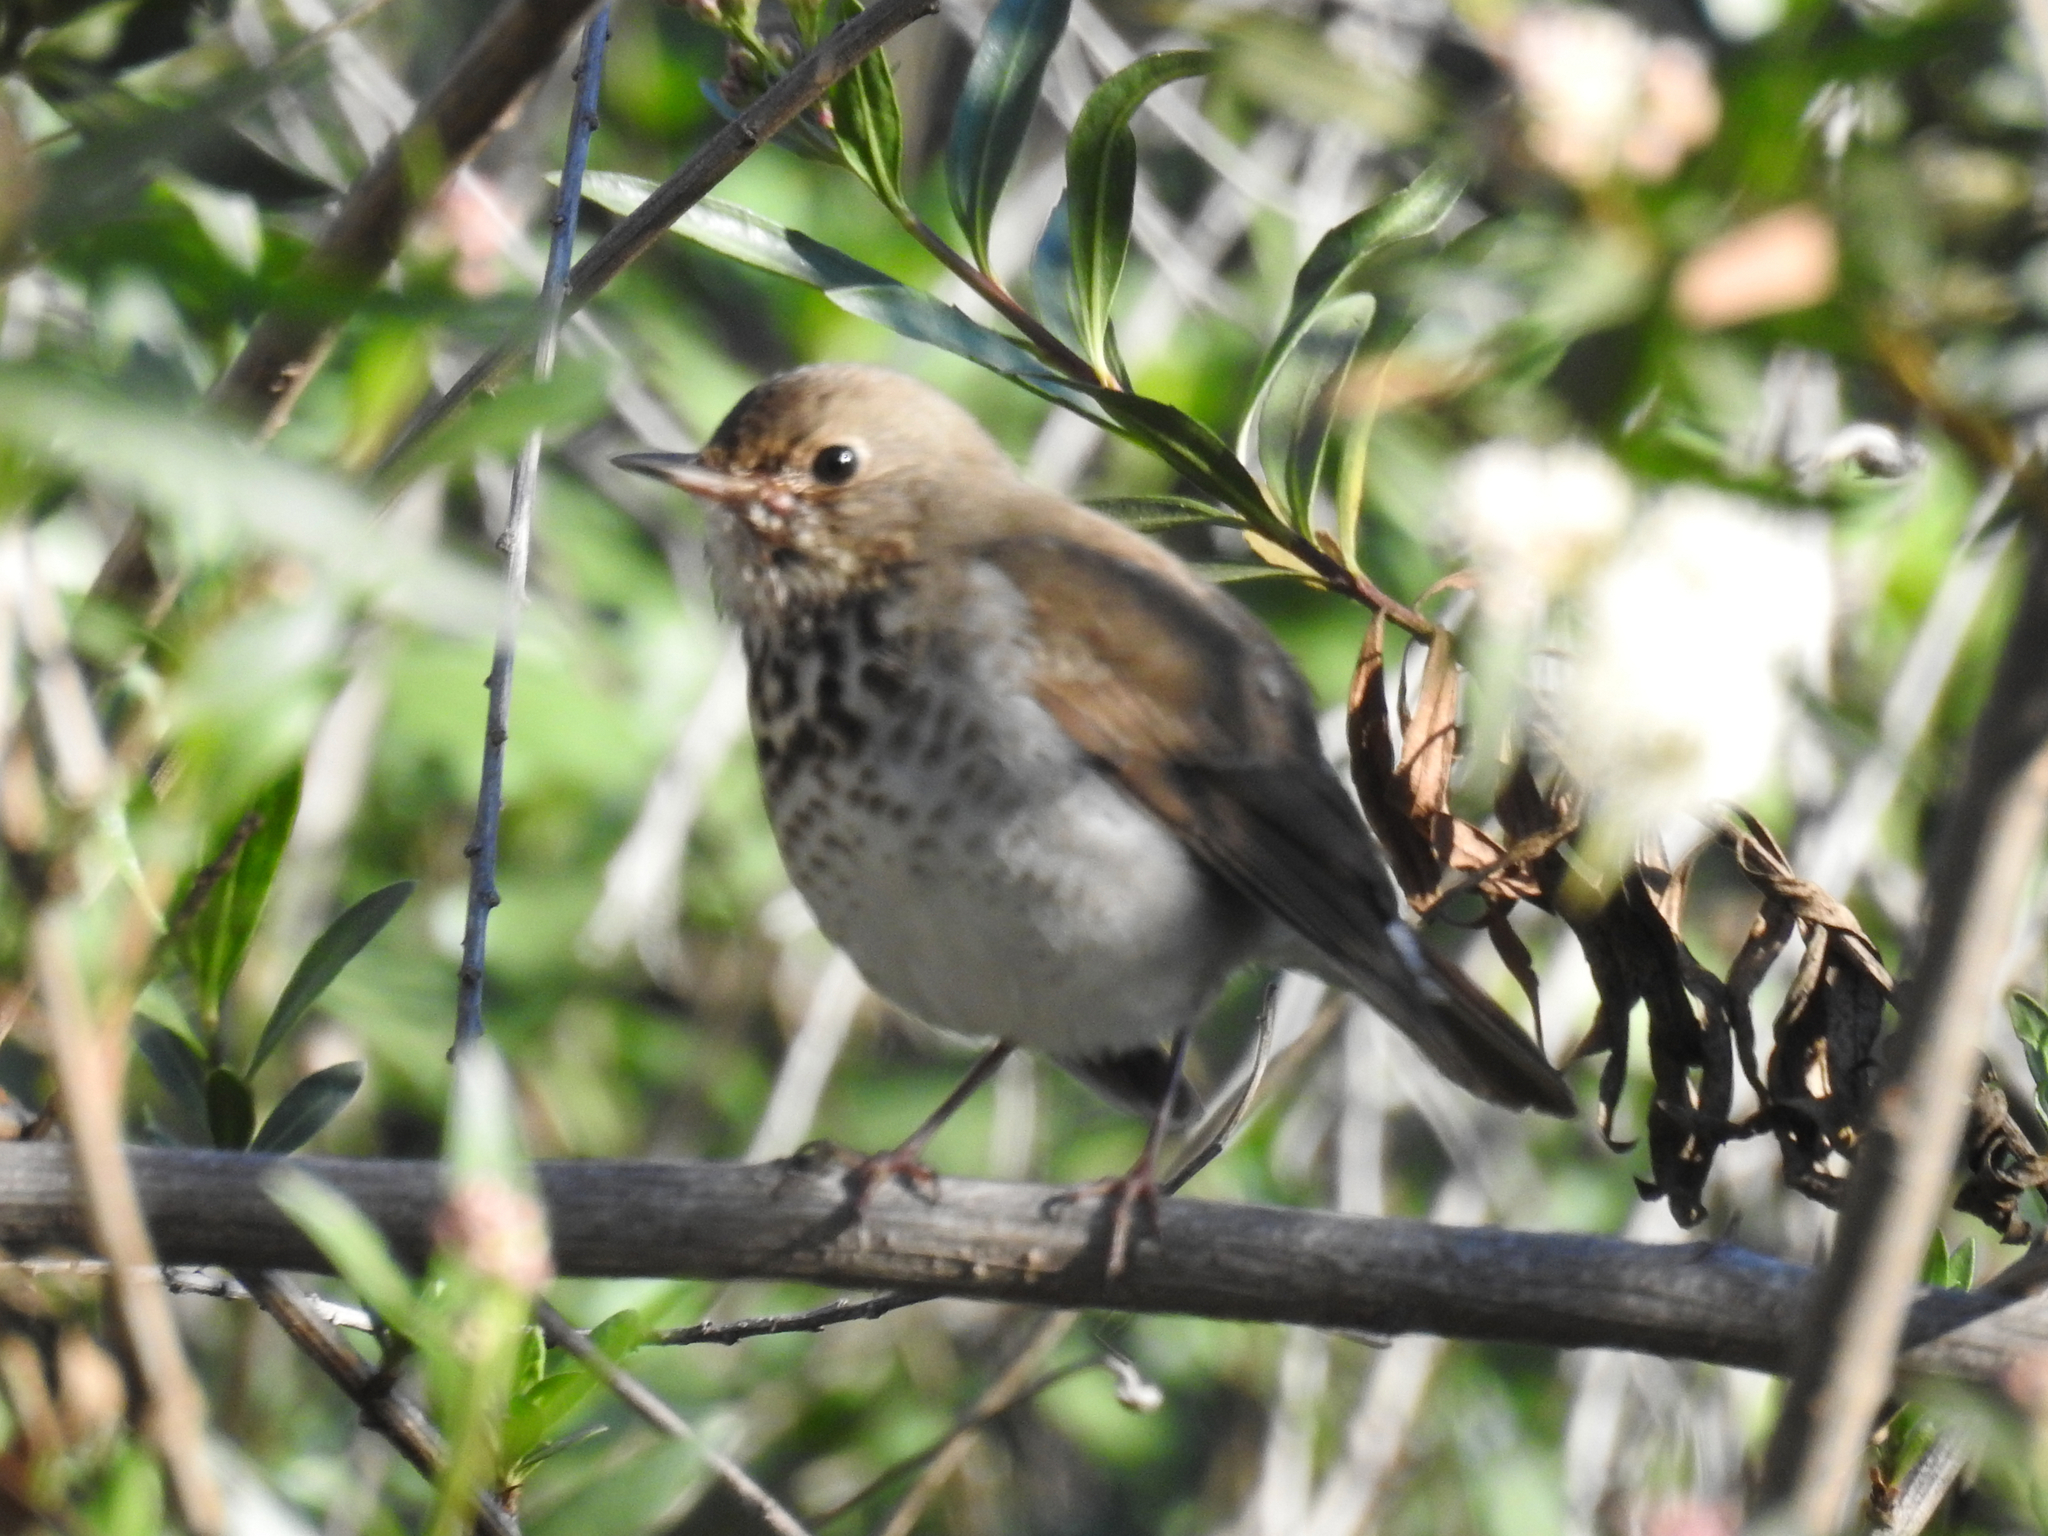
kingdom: Animalia
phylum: Chordata
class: Aves
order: Passeriformes
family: Turdidae
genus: Catharus
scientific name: Catharus guttatus
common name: Hermit thrush
